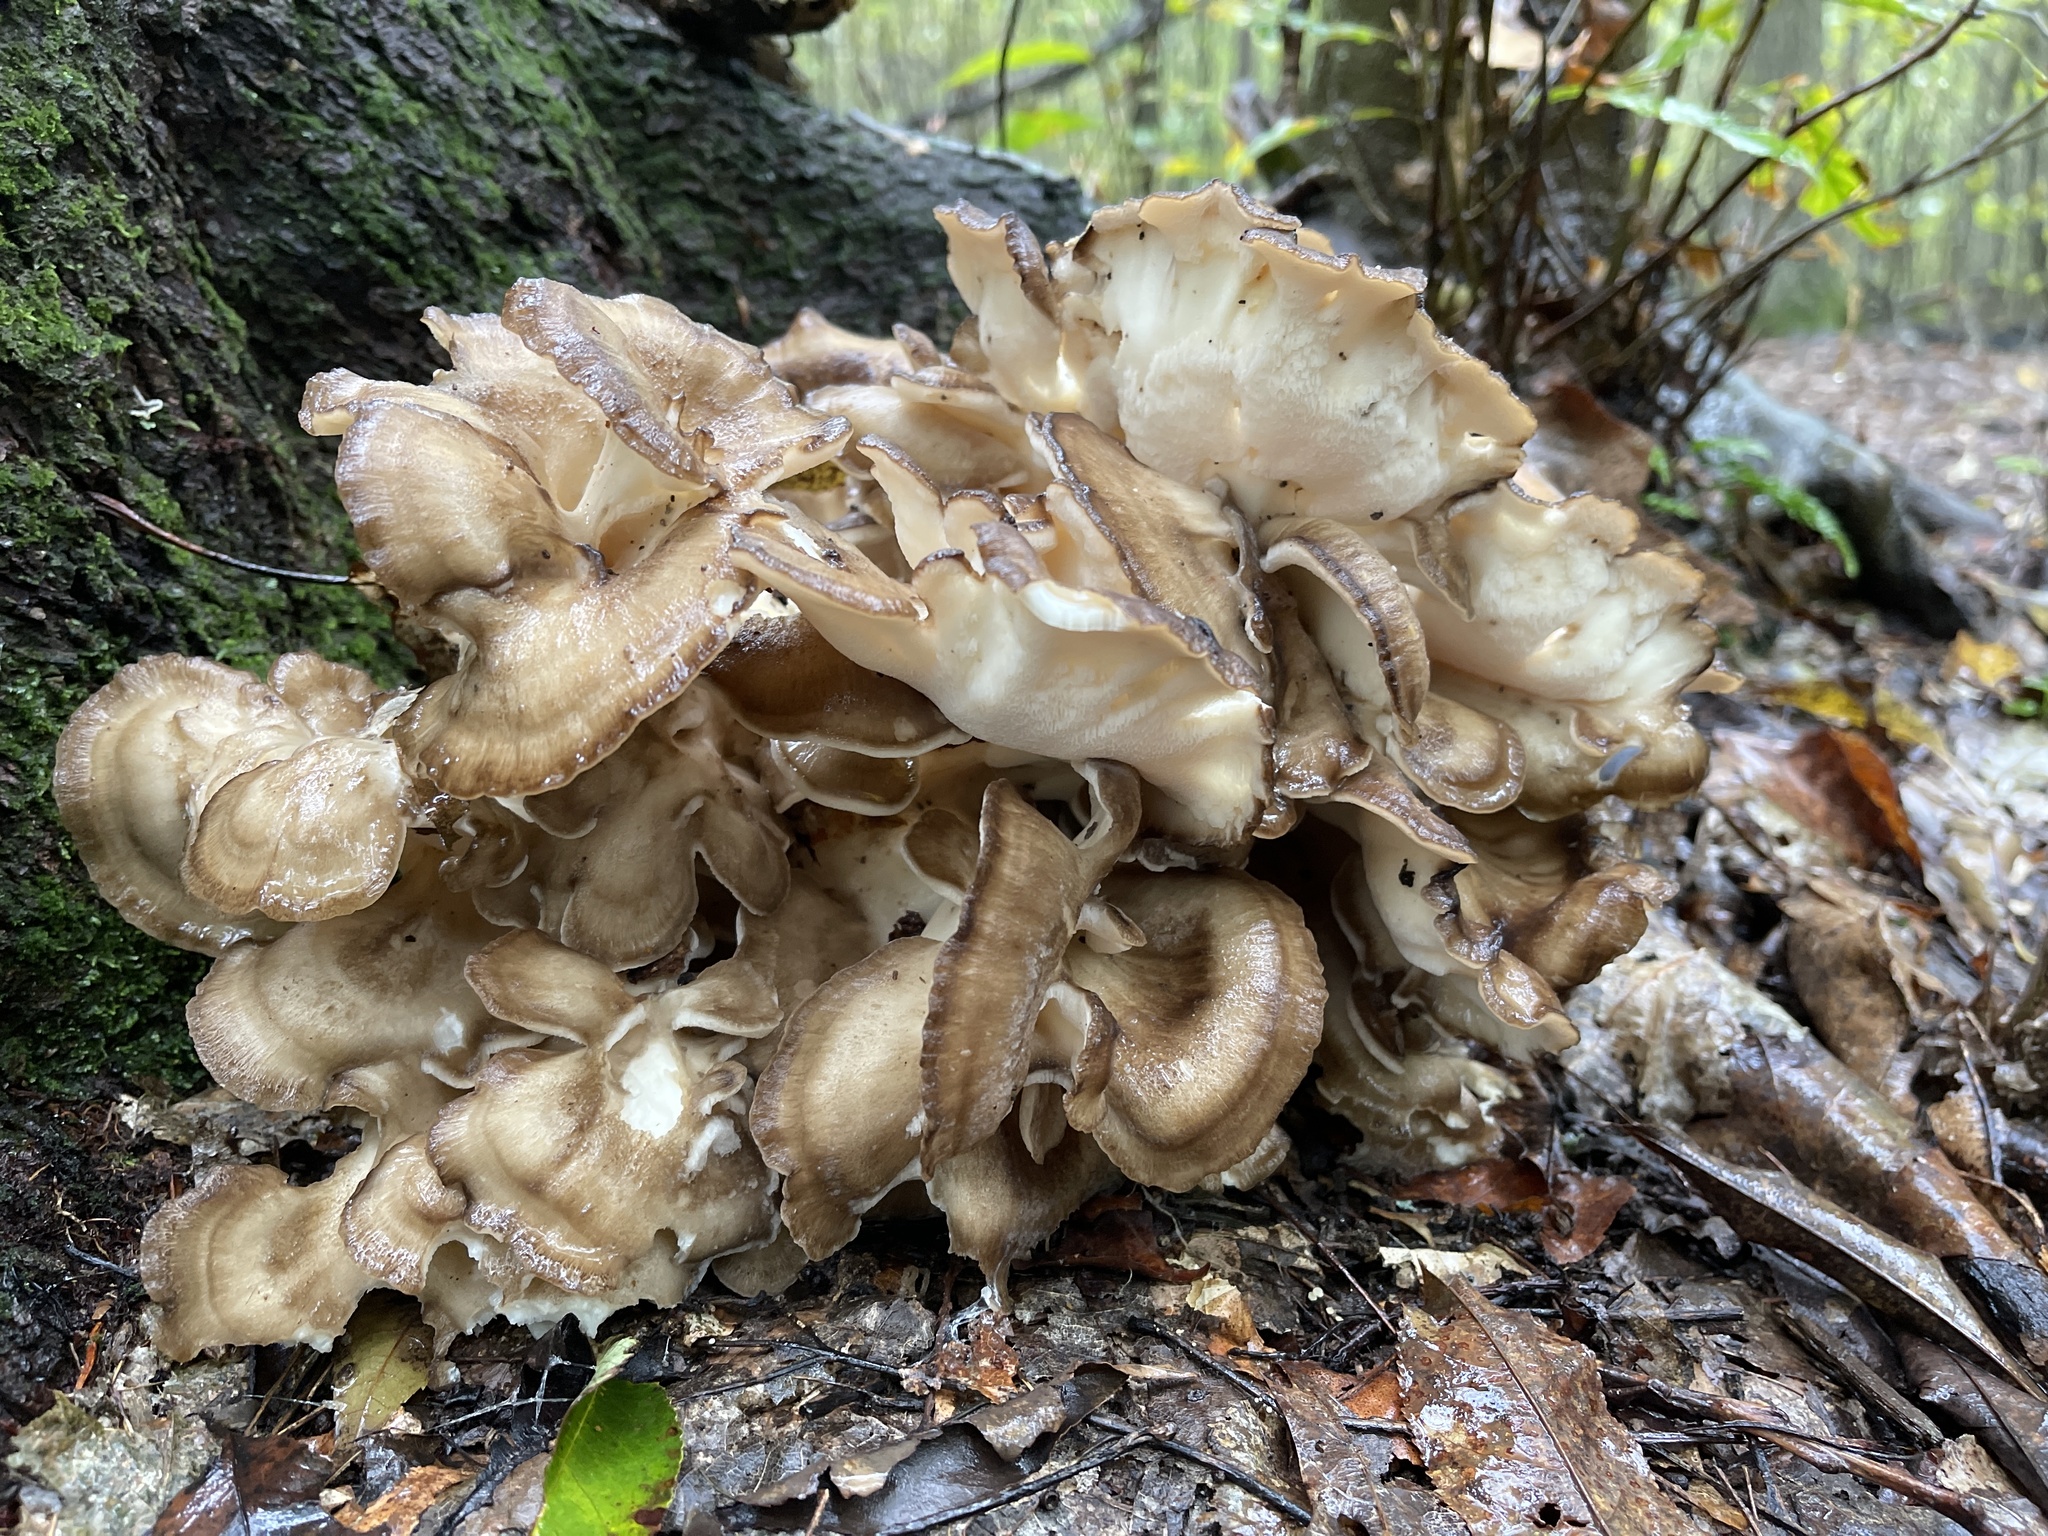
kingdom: Fungi
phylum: Basidiomycota
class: Agaricomycetes
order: Polyporales
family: Grifolaceae
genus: Grifola
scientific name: Grifola frondosa
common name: Hen of the woods
